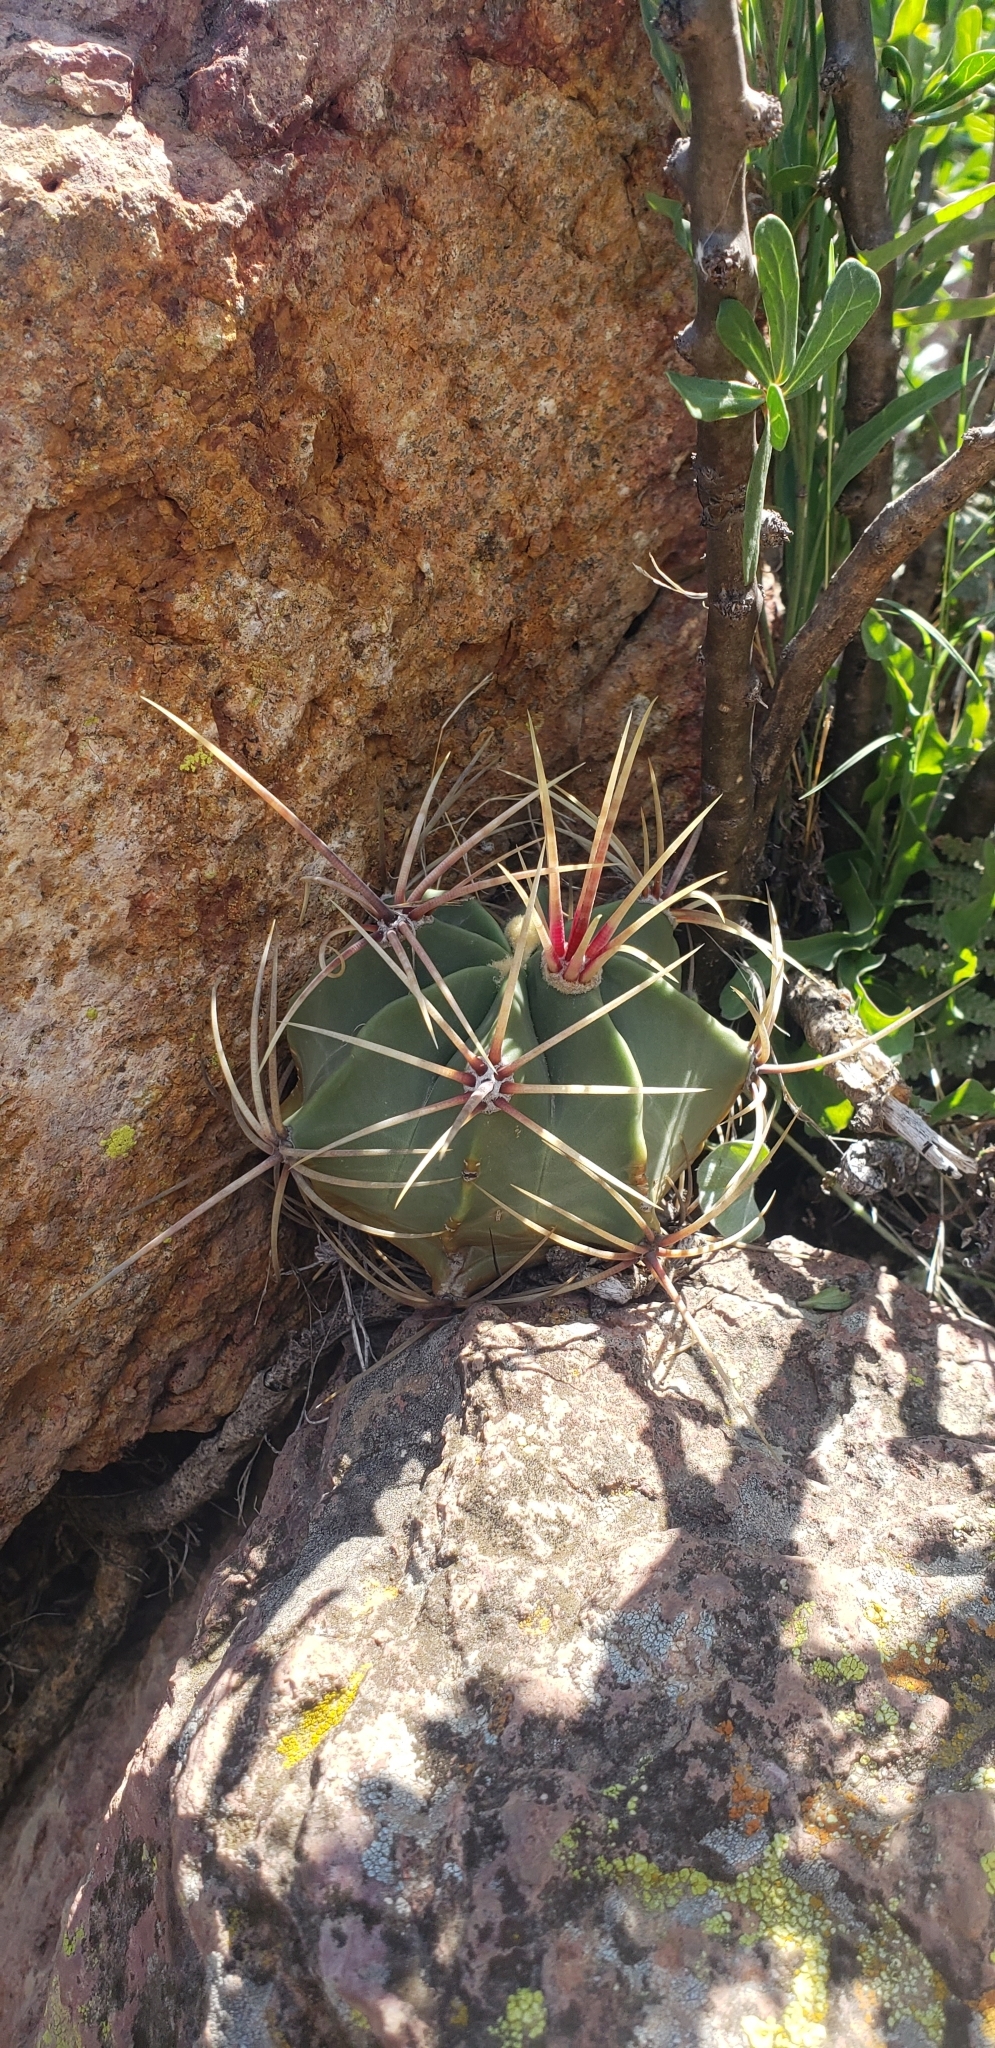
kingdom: Plantae
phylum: Tracheophyta
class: Magnoliopsida
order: Caryophyllales
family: Cactaceae
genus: Bisnaga
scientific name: Bisnaga histrix
